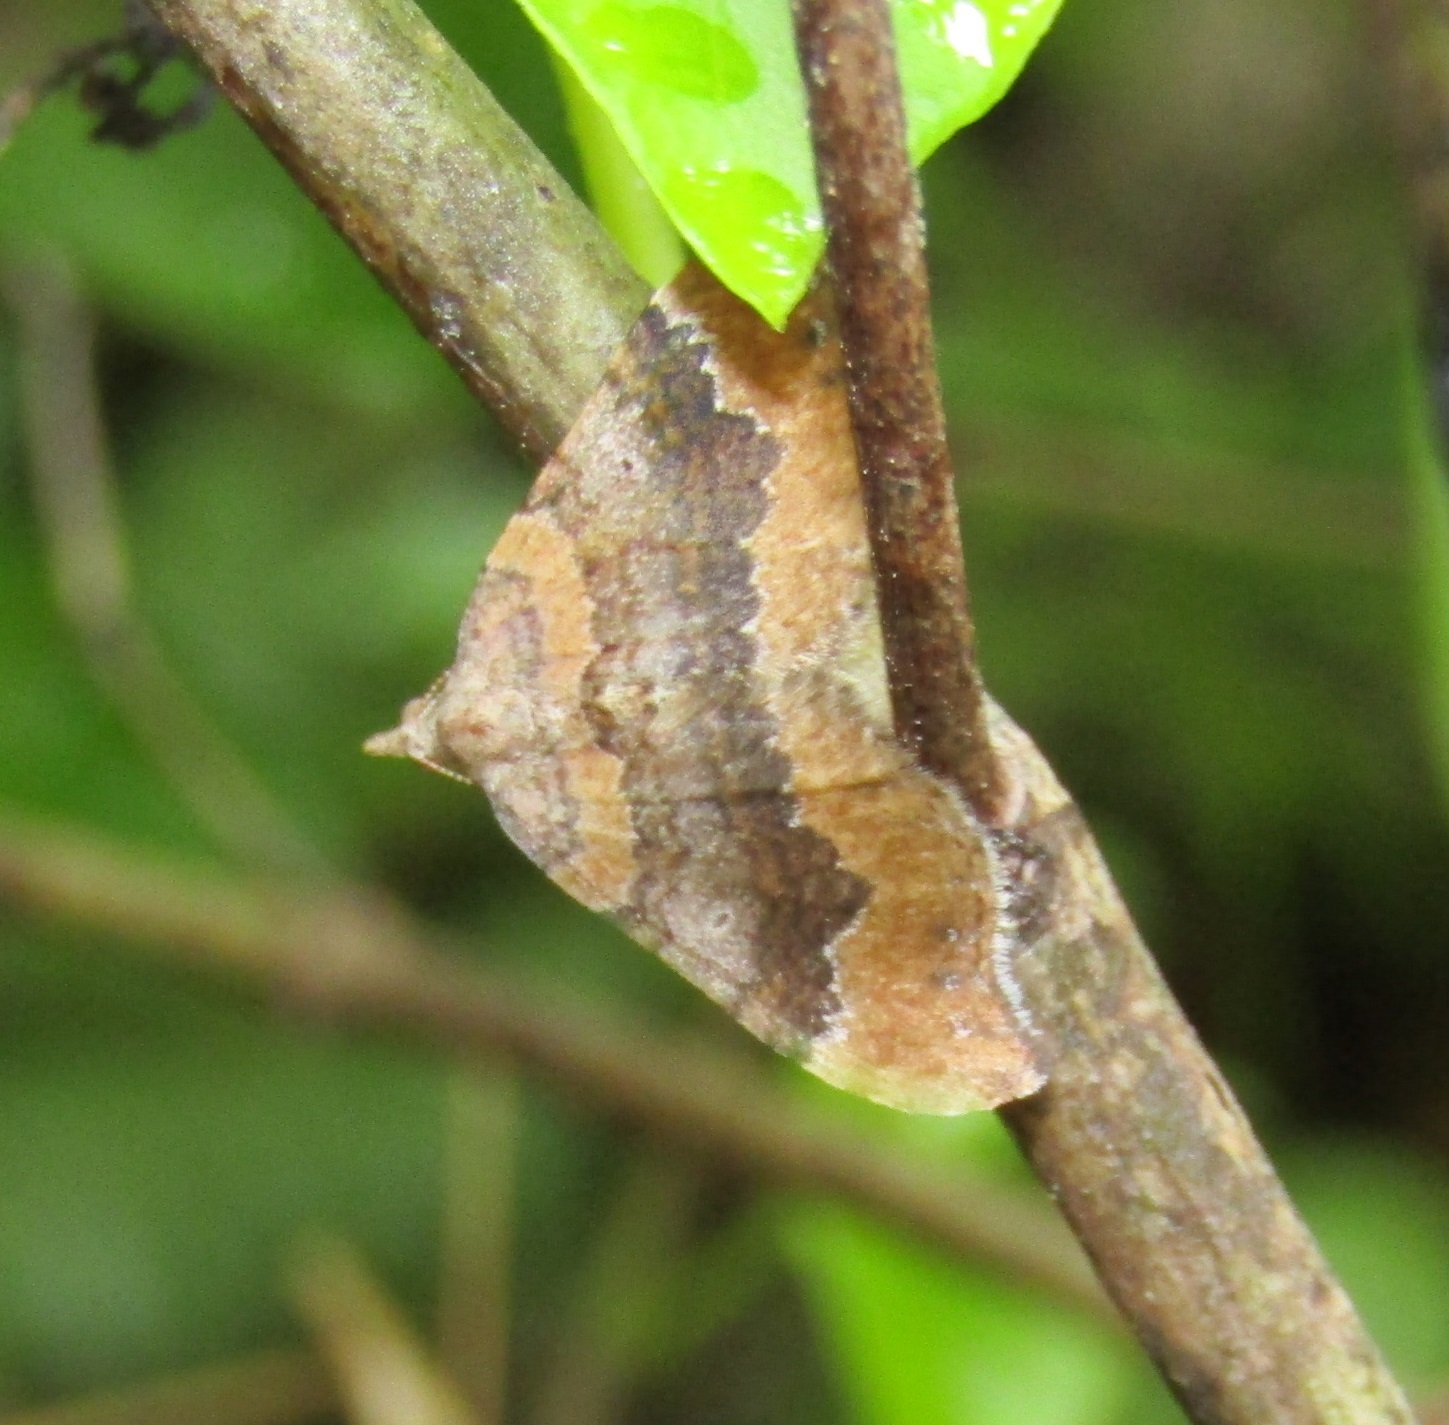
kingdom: Animalia
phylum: Arthropoda
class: Insecta
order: Lepidoptera
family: Geometridae
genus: Homodotis
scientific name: Homodotis megaspilata
